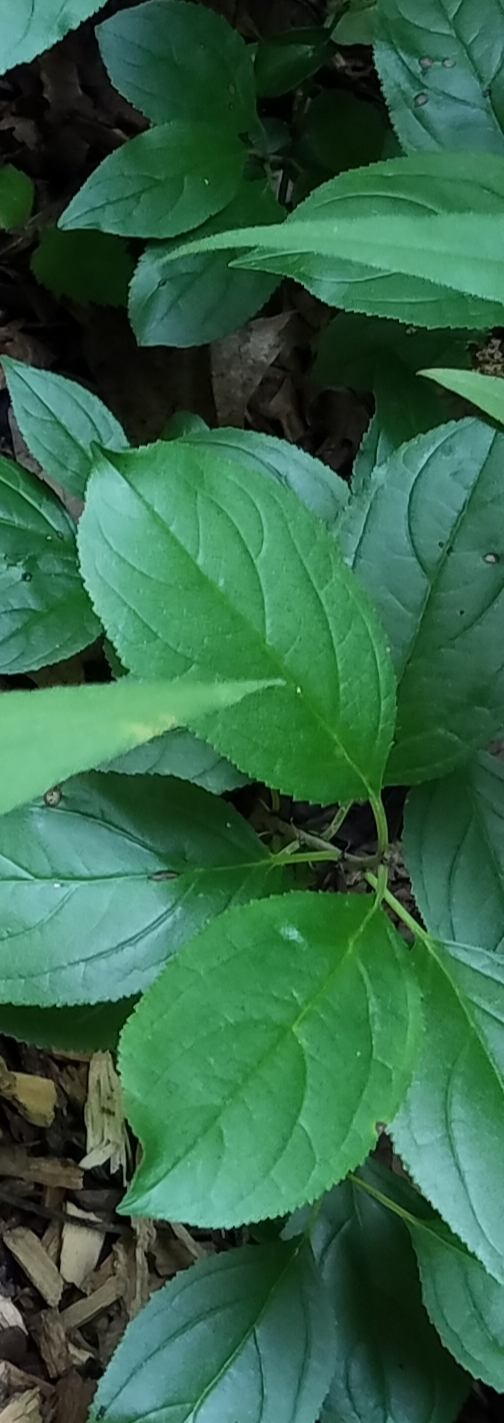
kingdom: Plantae
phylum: Tracheophyta
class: Magnoliopsida
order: Rosales
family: Rhamnaceae
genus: Rhamnus
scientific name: Rhamnus cathartica
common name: Common buckthorn
